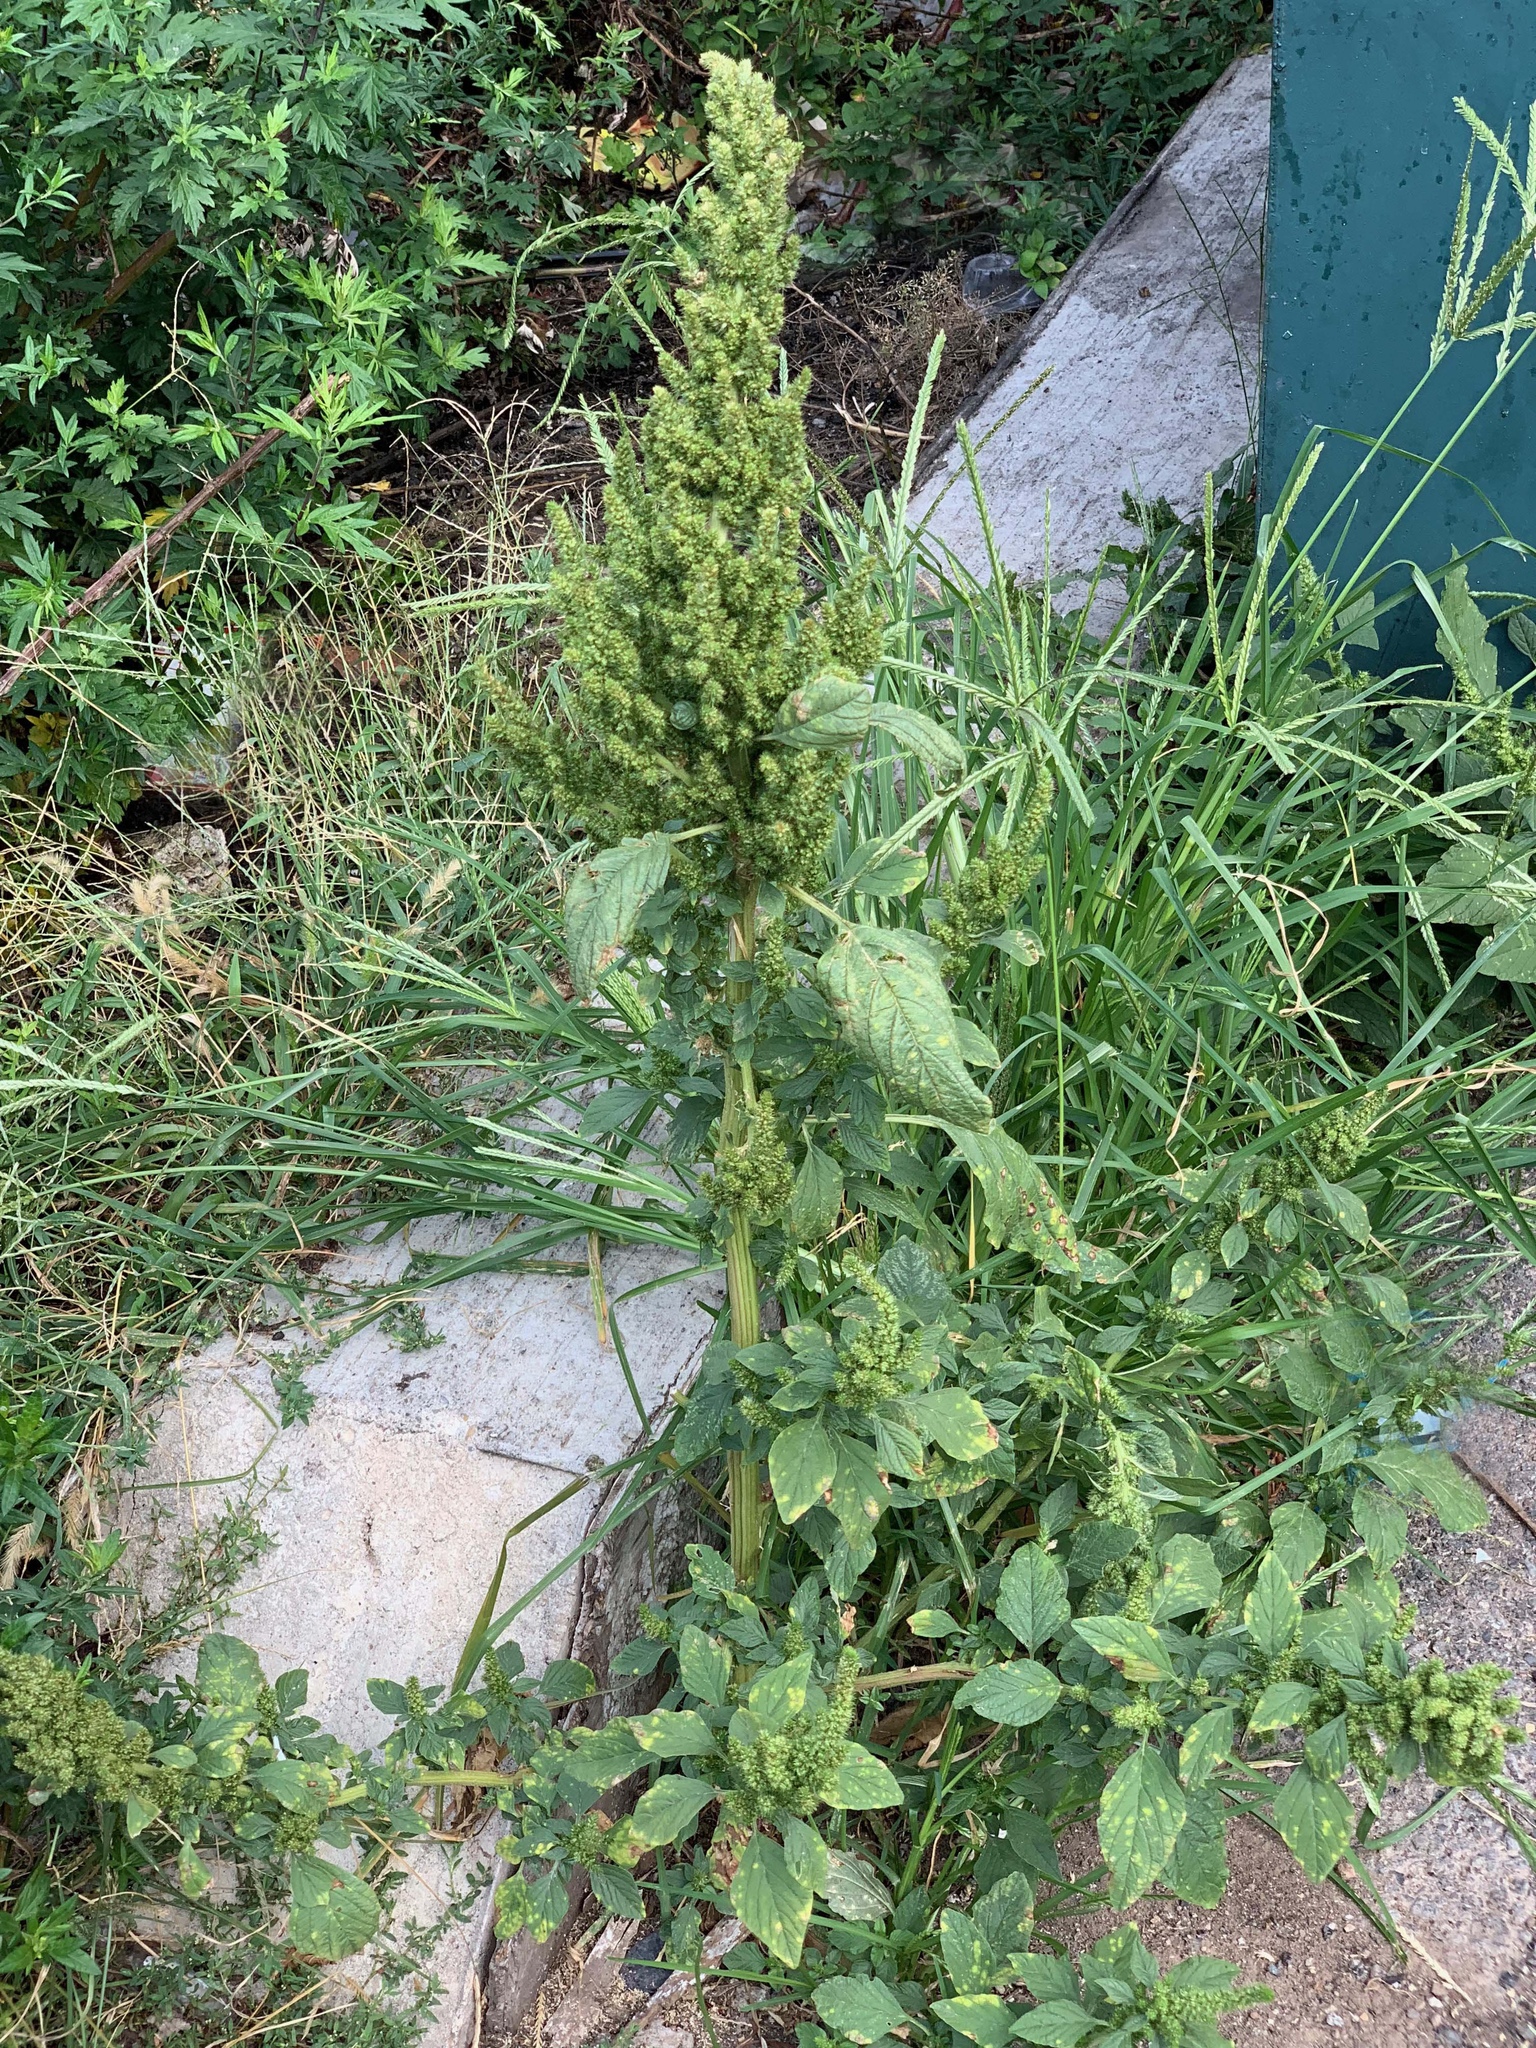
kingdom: Plantae
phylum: Tracheophyta
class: Magnoliopsida
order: Caryophyllales
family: Amaranthaceae
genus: Amaranthus
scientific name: Amaranthus retroflexus
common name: Redroot amaranth
